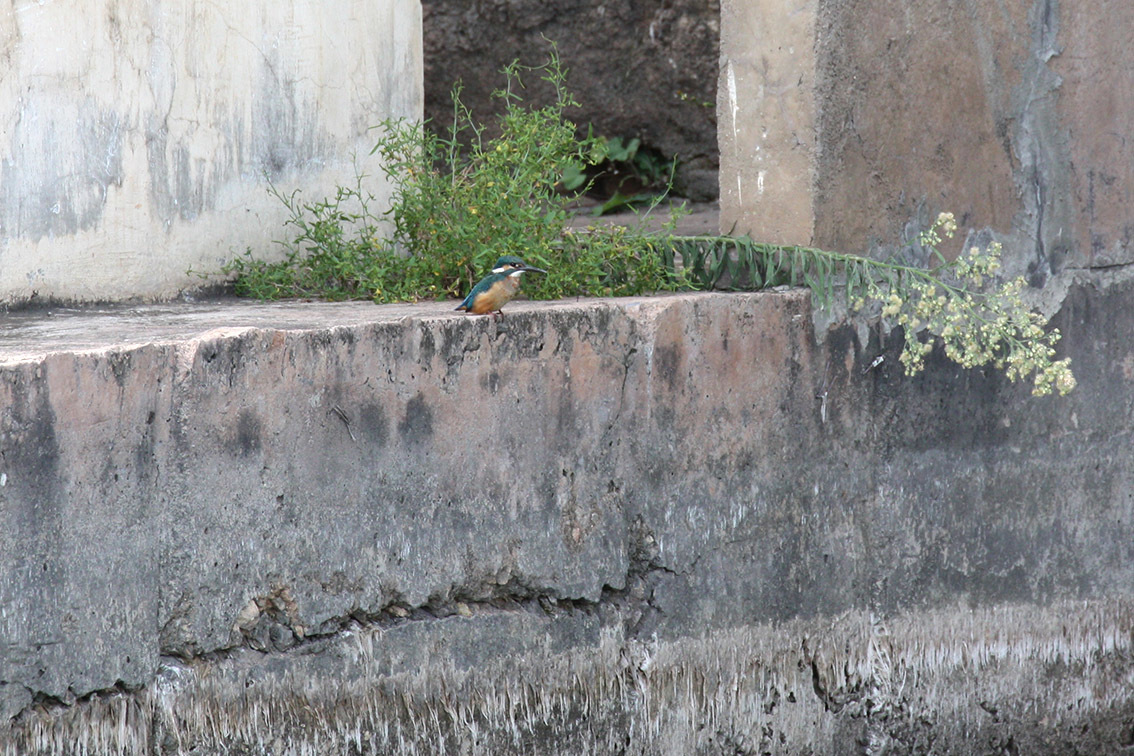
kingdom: Animalia
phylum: Chordata
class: Aves
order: Coraciiformes
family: Alcedinidae
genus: Alcedo
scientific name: Alcedo atthis
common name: Common kingfisher
